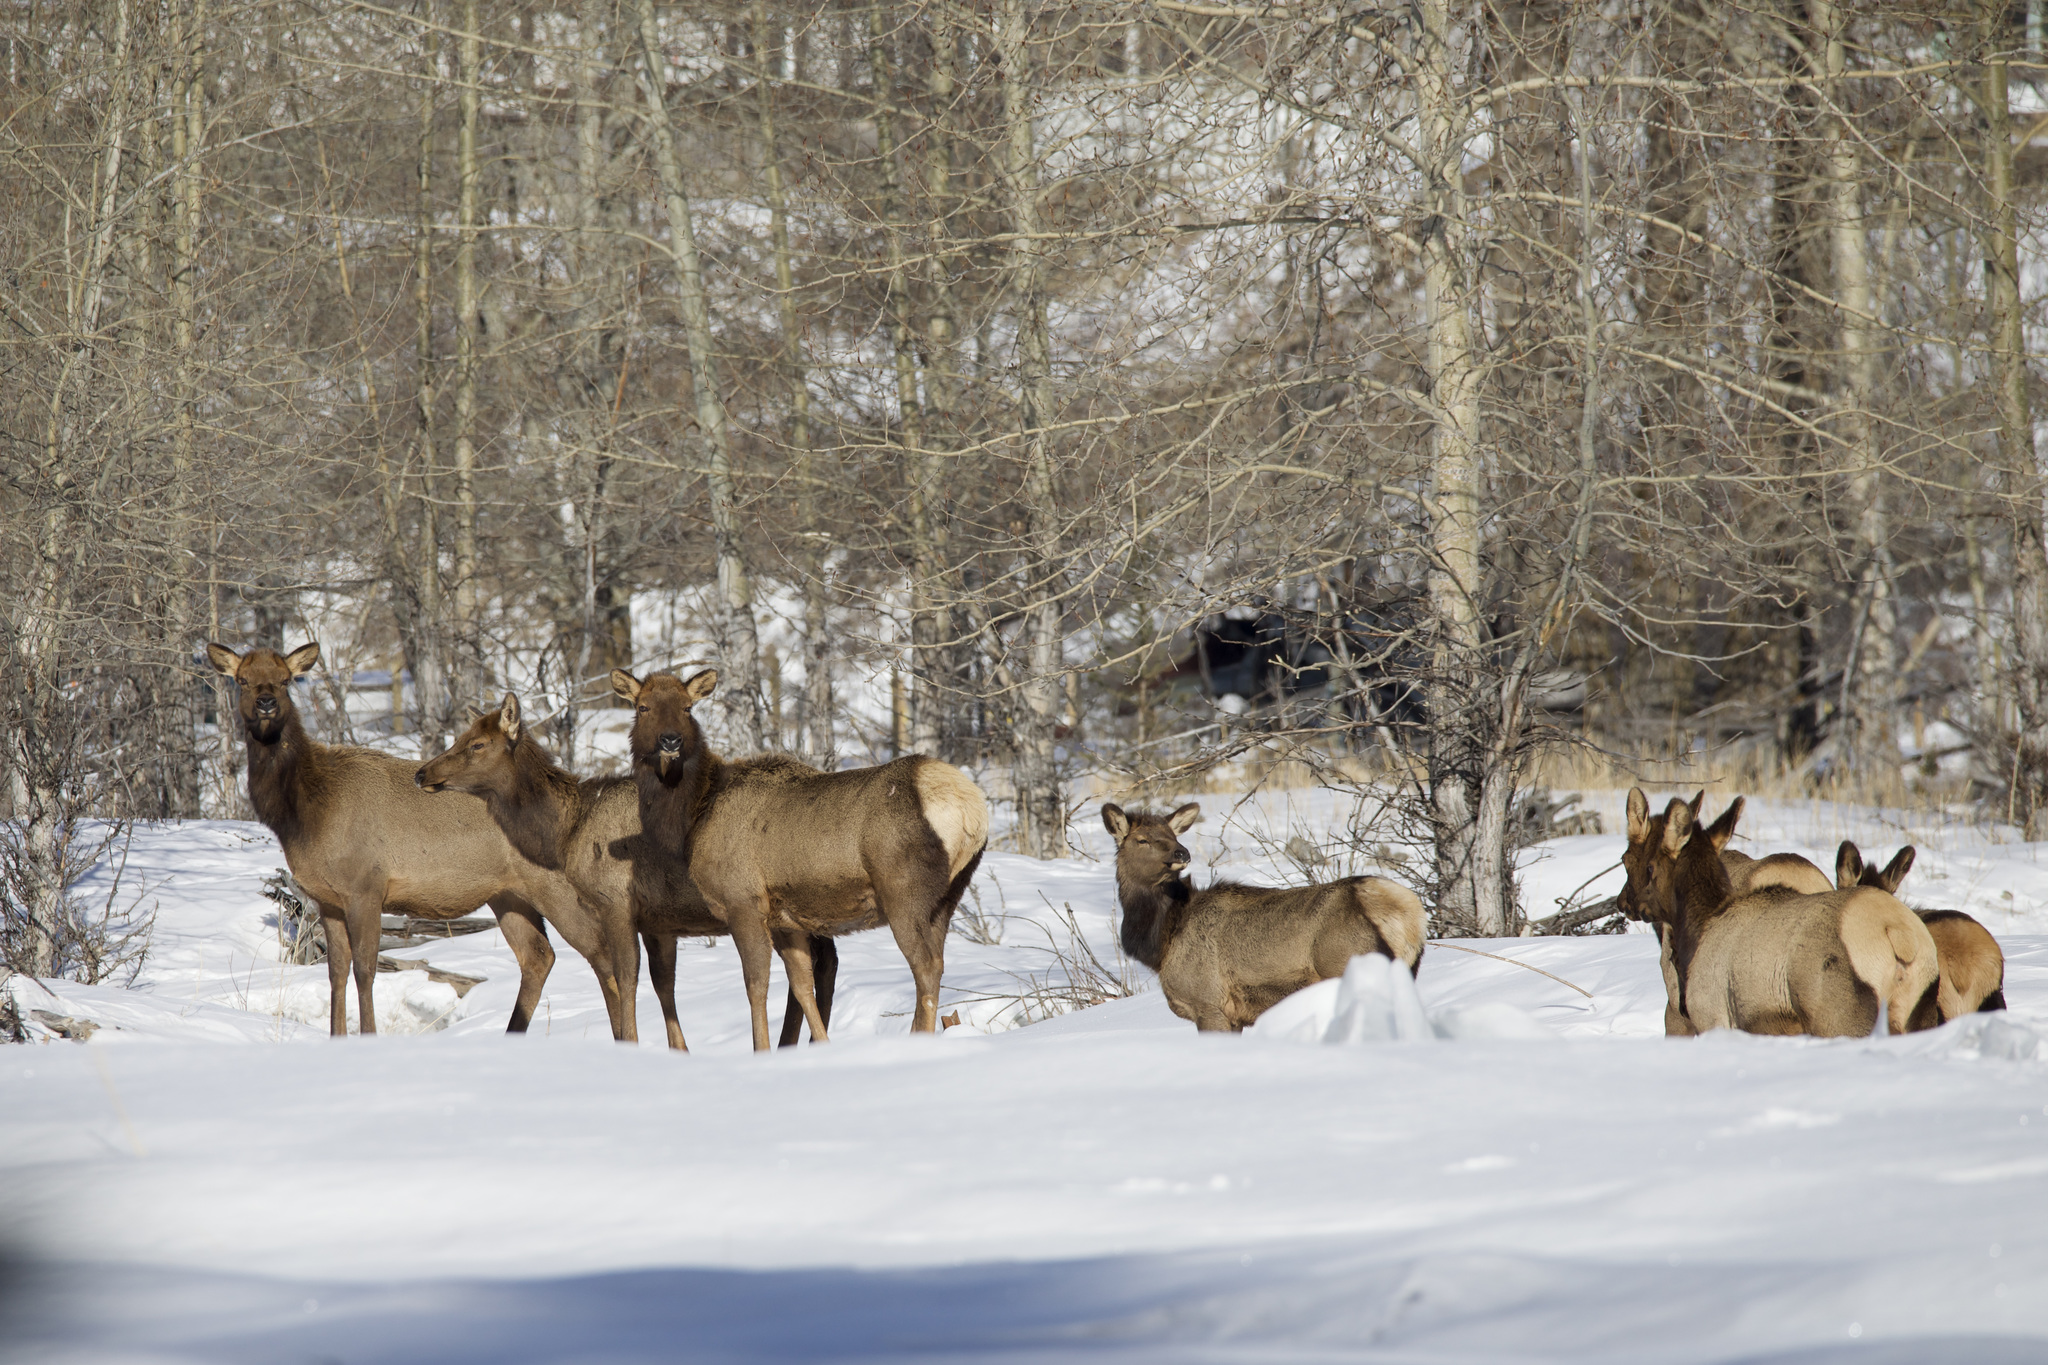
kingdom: Animalia
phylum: Chordata
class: Mammalia
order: Artiodactyla
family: Cervidae
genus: Cervus
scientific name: Cervus elaphus
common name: Red deer
